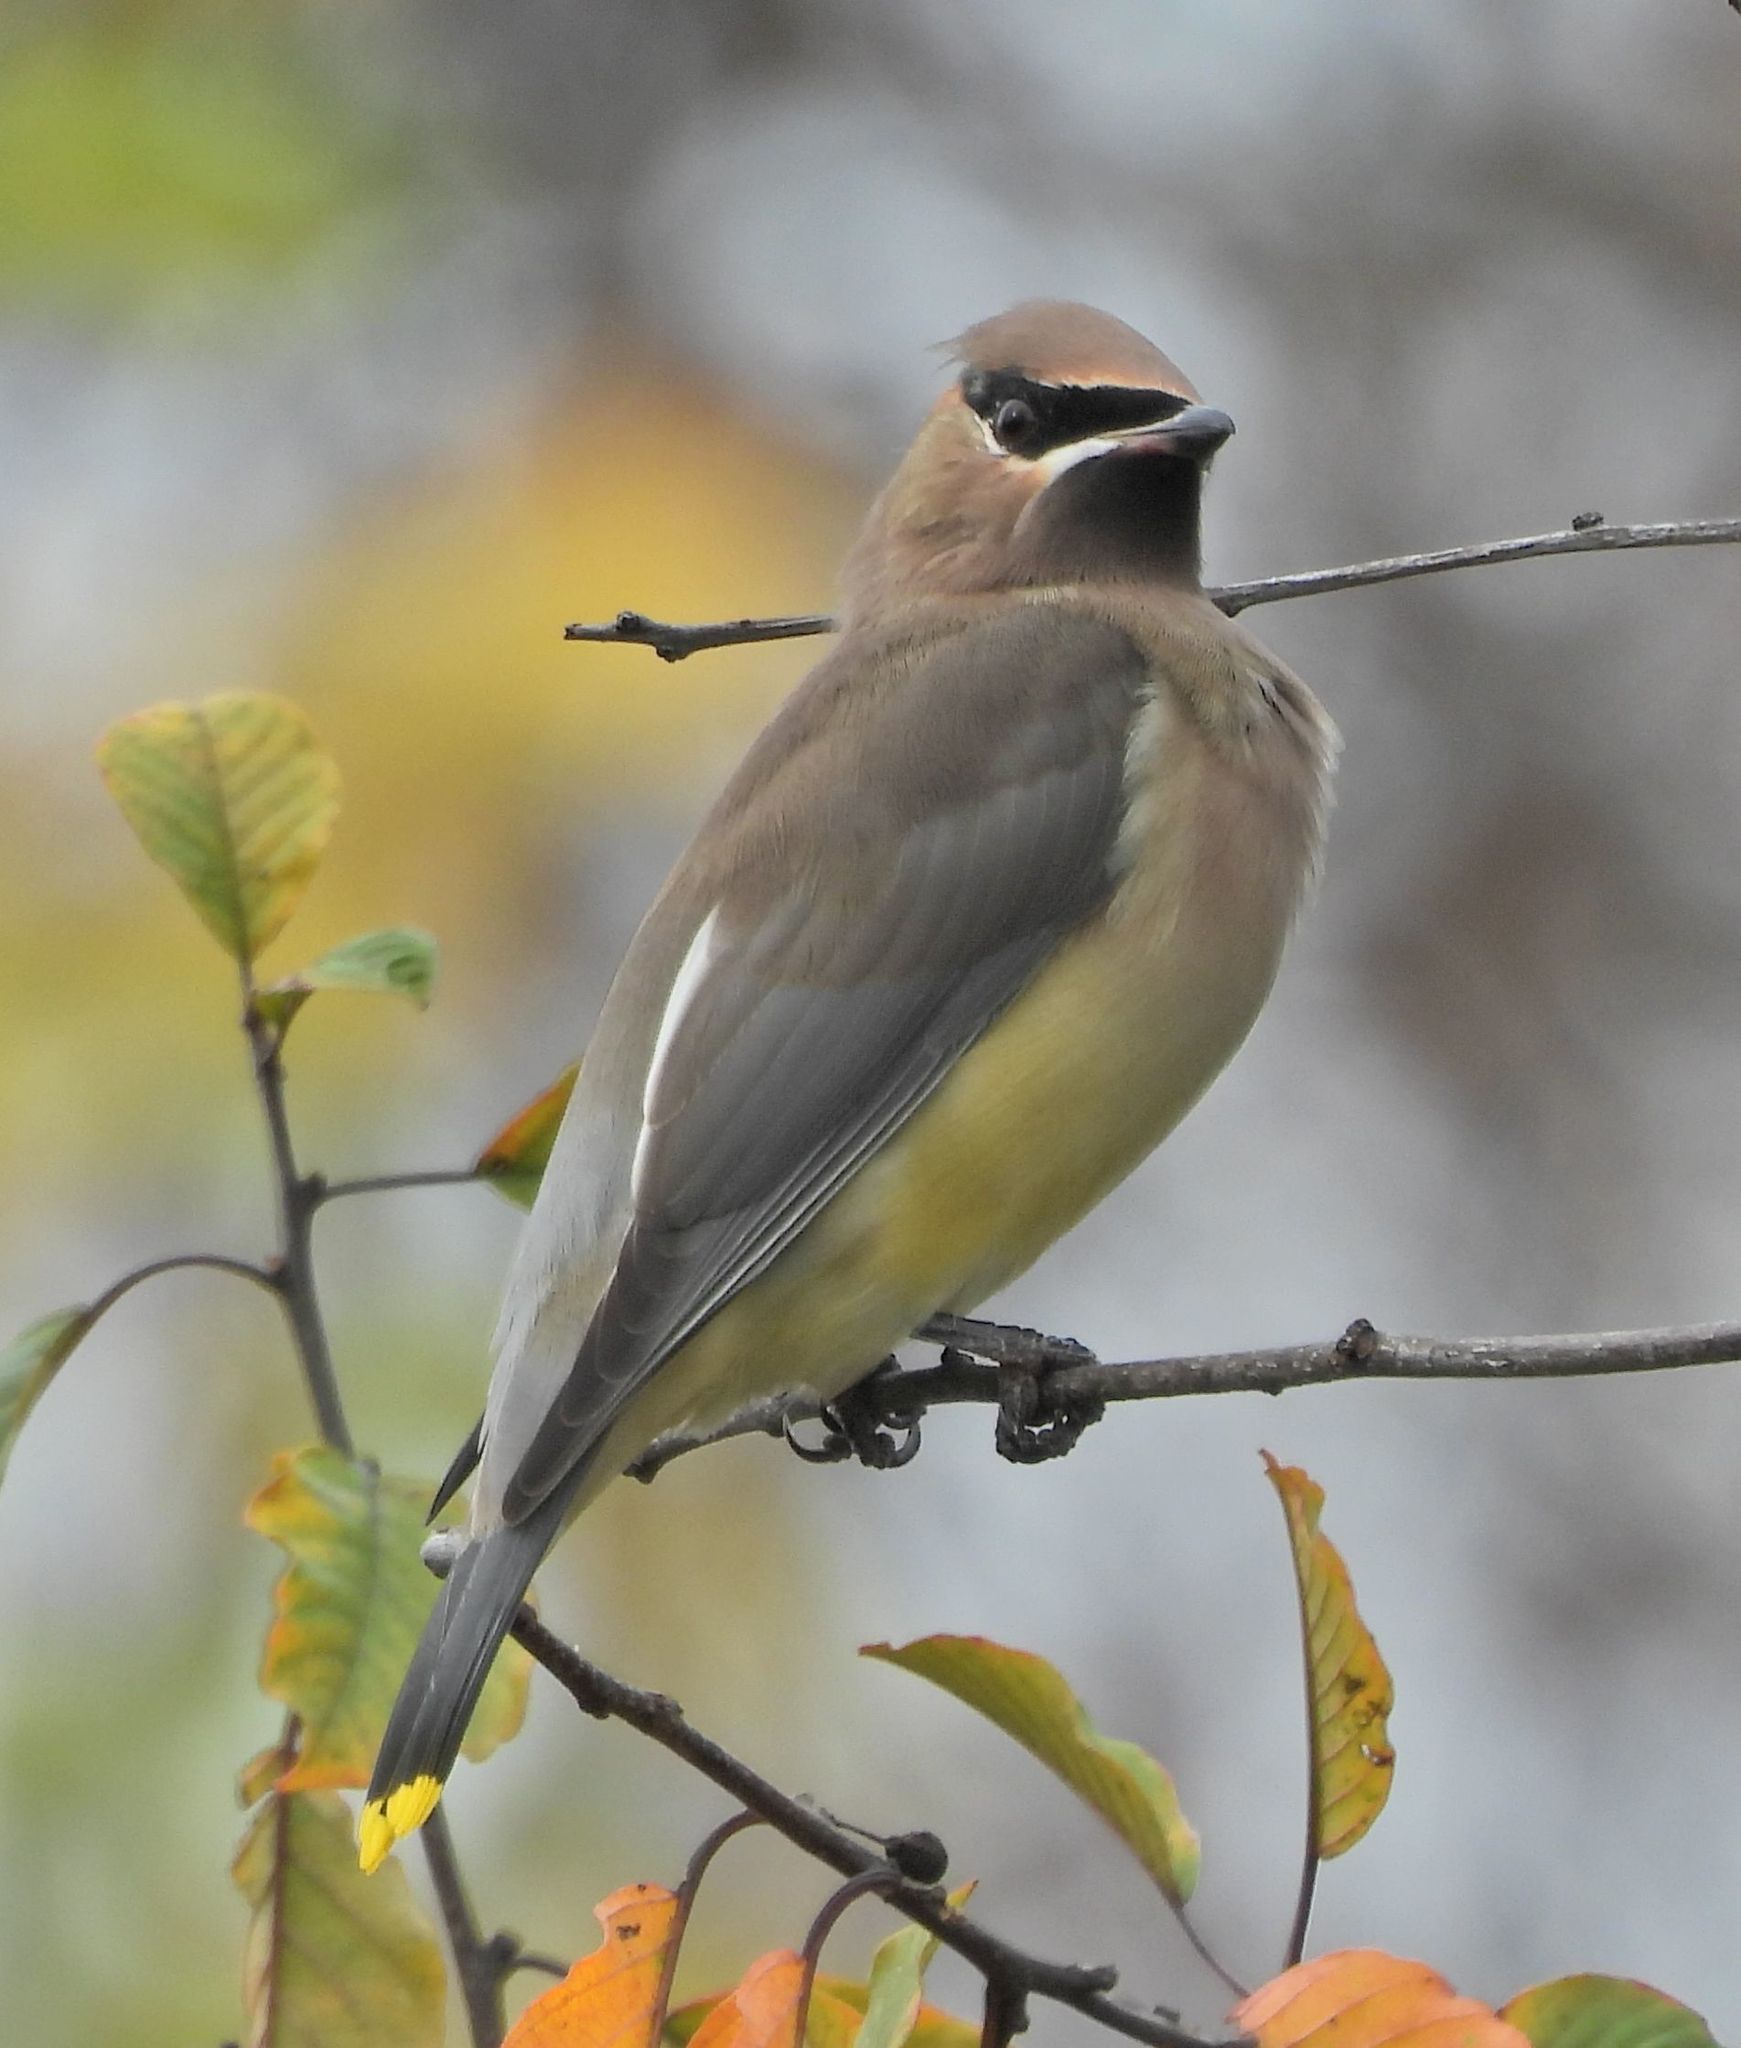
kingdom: Animalia
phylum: Chordata
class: Aves
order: Passeriformes
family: Bombycillidae
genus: Bombycilla
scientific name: Bombycilla cedrorum
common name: Cedar waxwing
